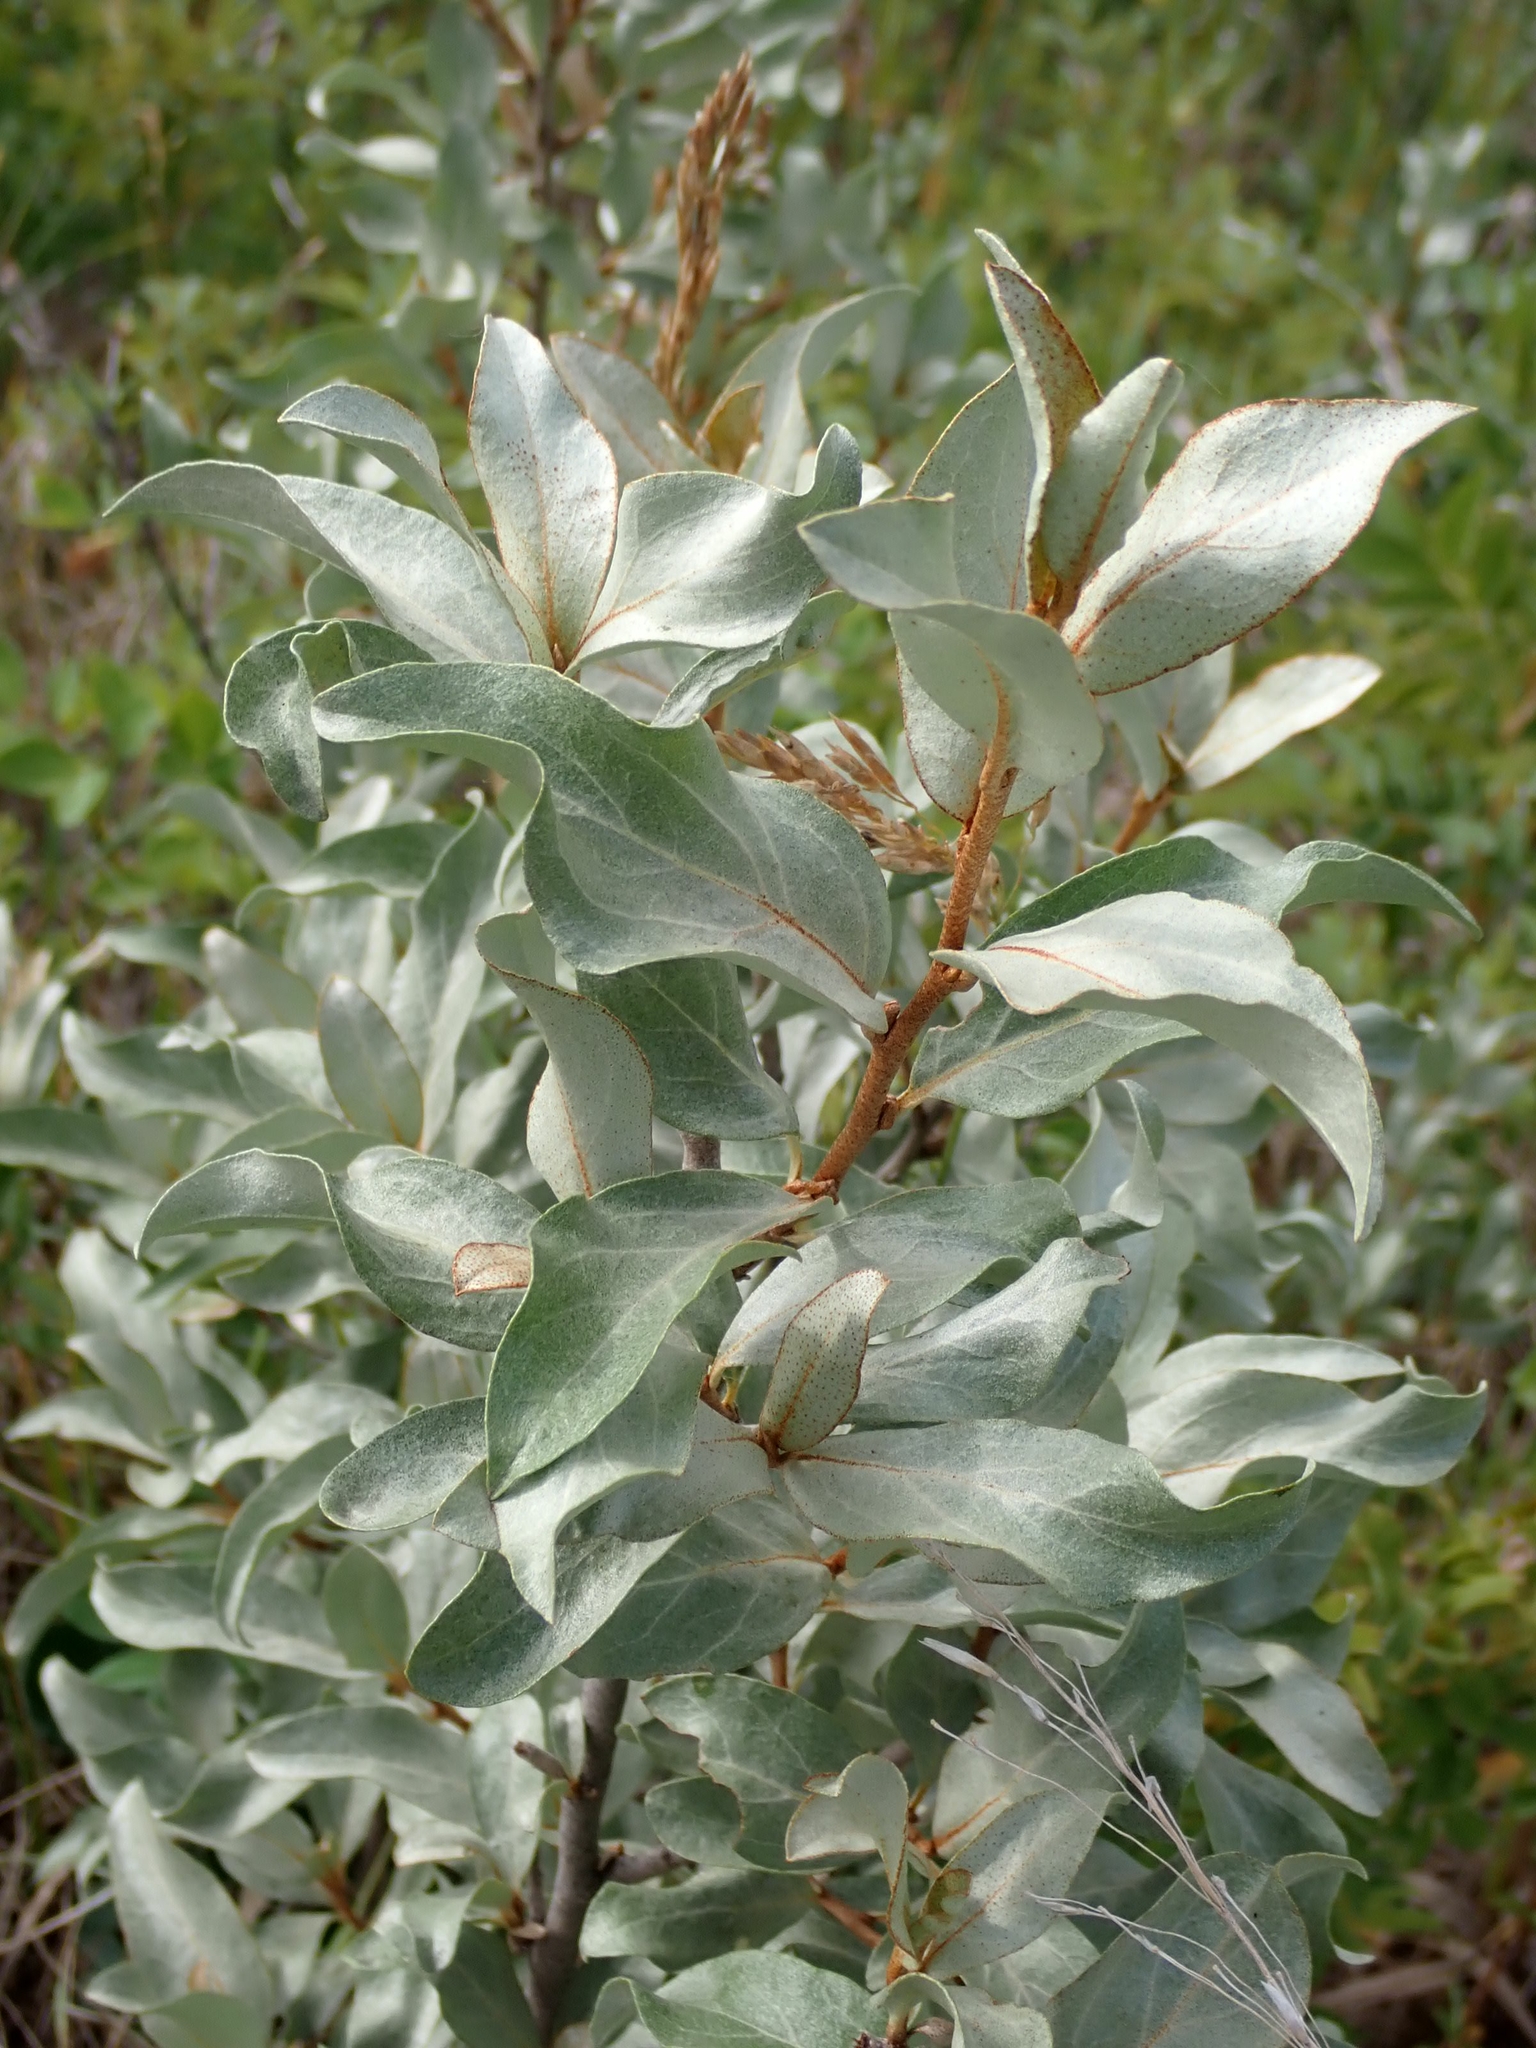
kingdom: Plantae
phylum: Tracheophyta
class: Magnoliopsida
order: Rosales
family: Elaeagnaceae
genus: Elaeagnus
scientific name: Elaeagnus commutata
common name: Silverberry
